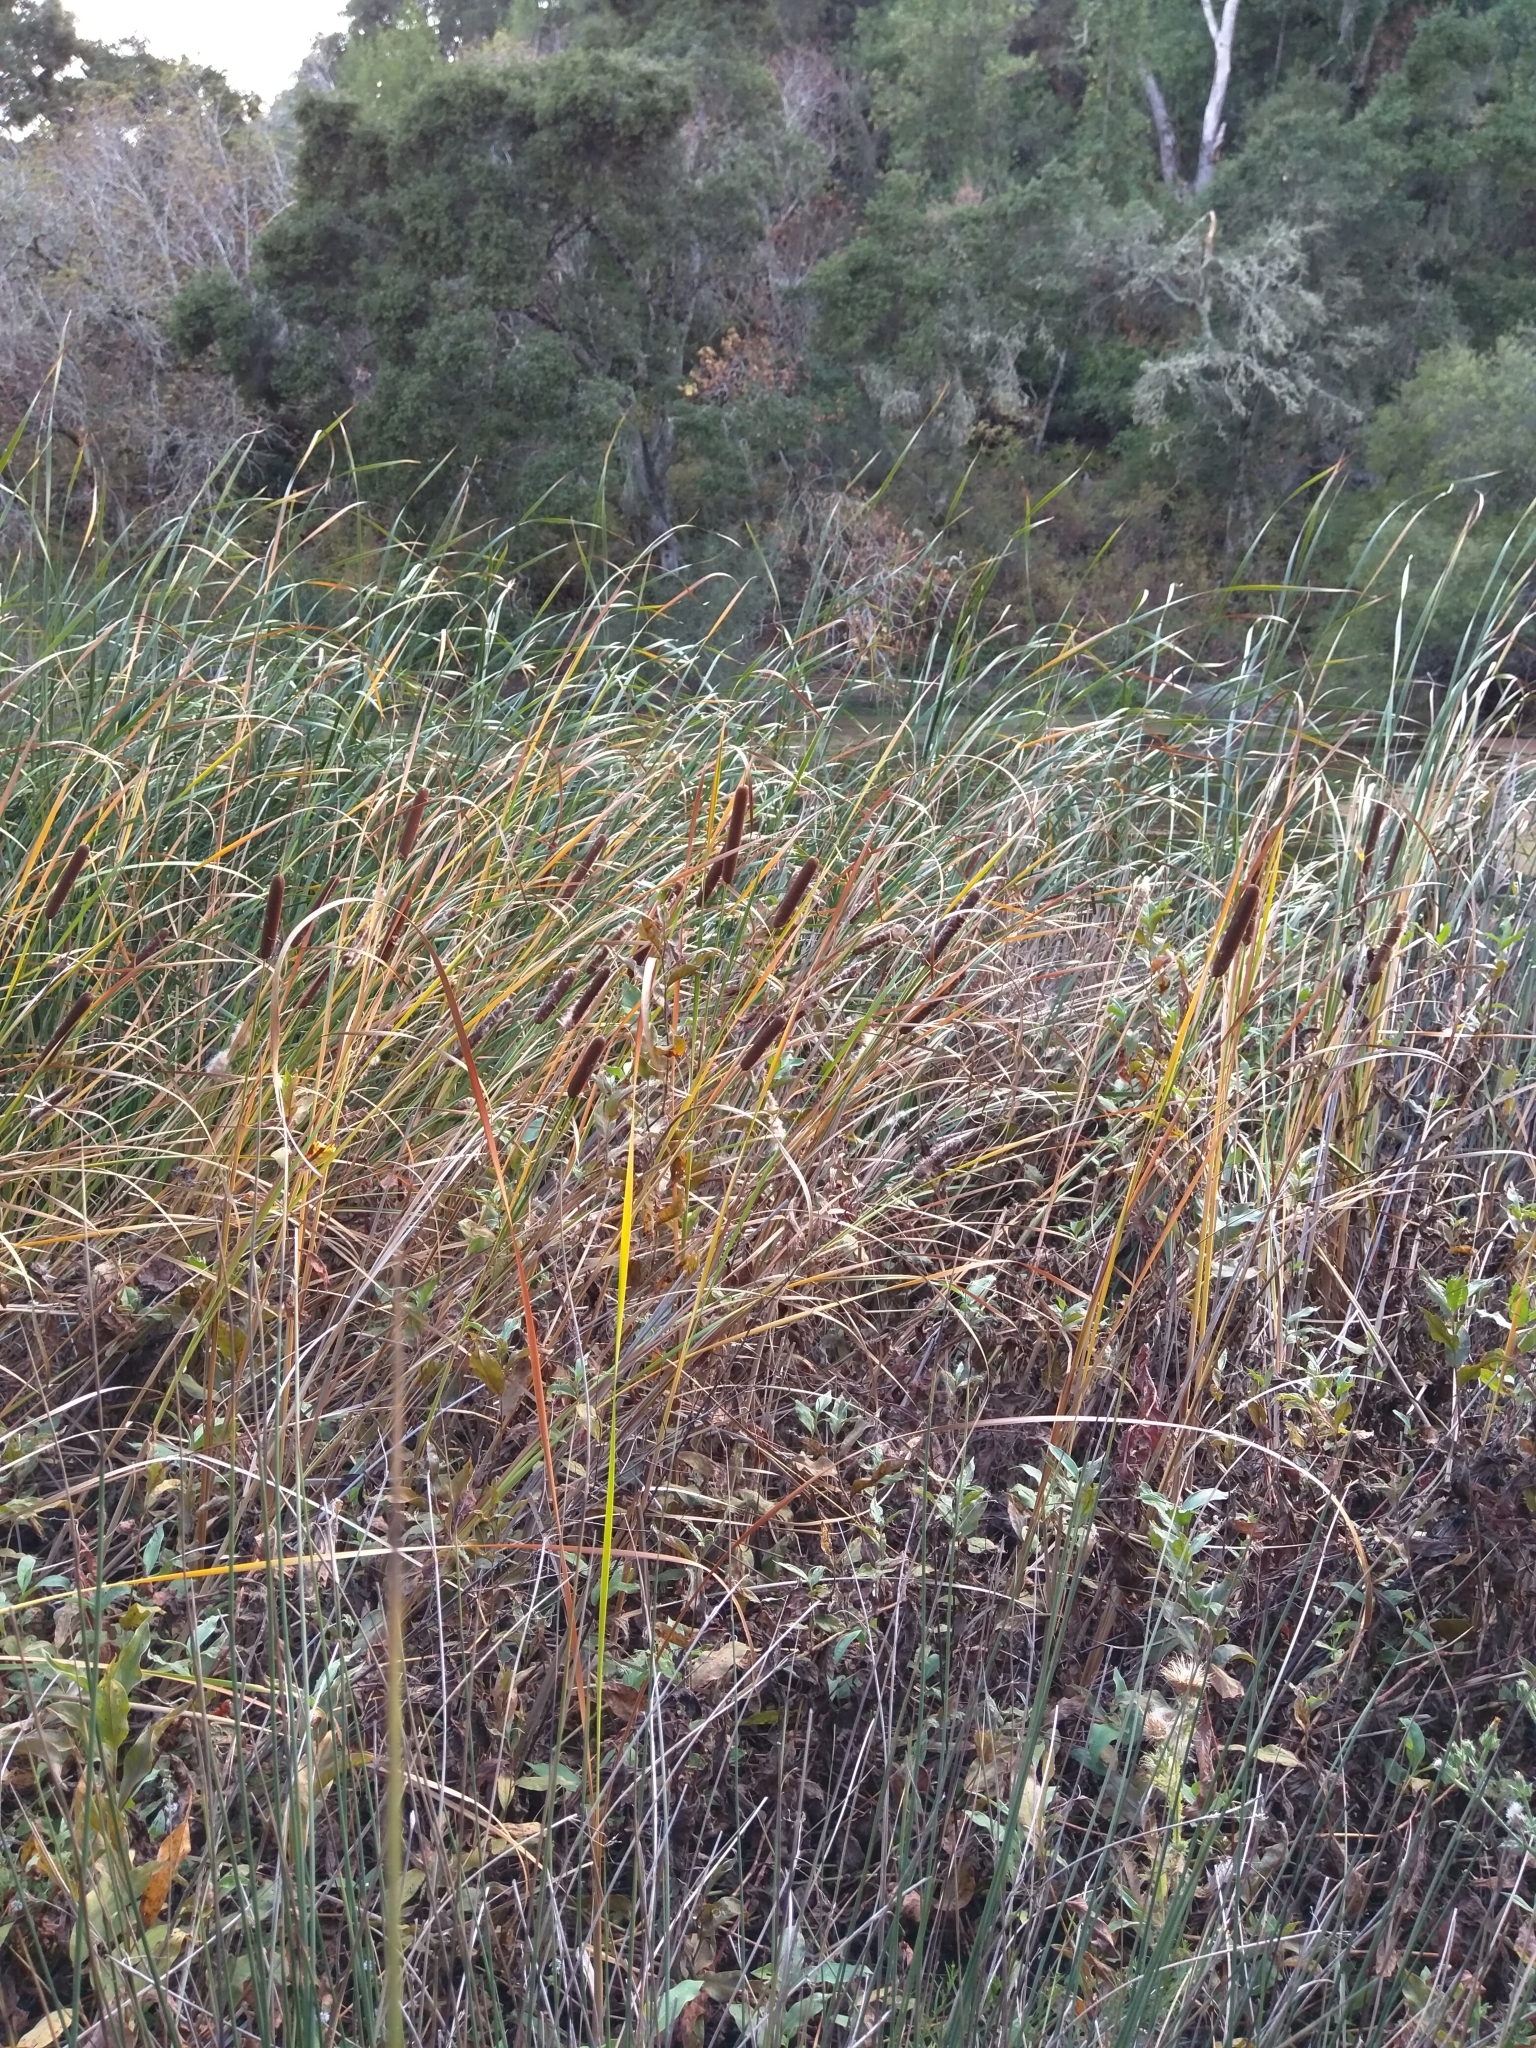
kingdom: Plantae
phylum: Tracheophyta
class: Liliopsida
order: Poales
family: Typhaceae
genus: Typha
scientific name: Typha angustifolia
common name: Lesser bulrush
